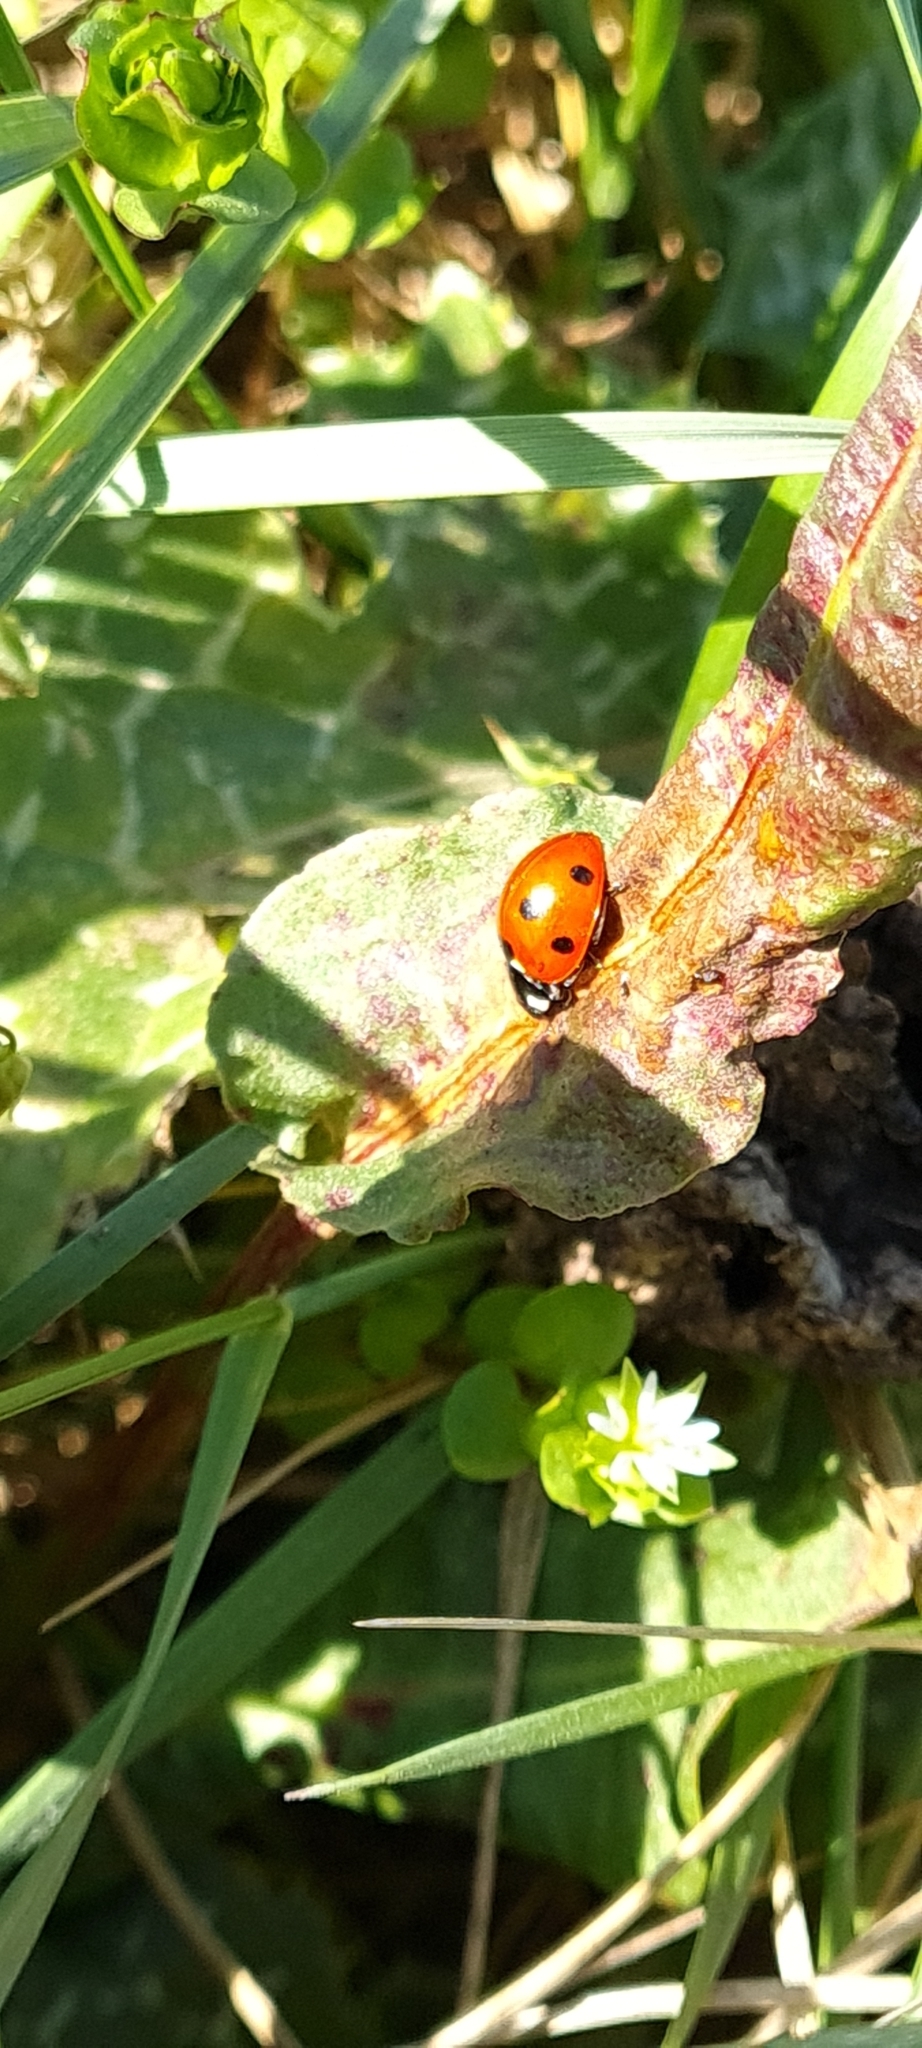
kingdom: Animalia
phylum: Arthropoda
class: Insecta
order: Coleoptera
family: Coccinellidae
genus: Coccinella
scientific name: Coccinella septempunctata
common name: Sevenspotted lady beetle
